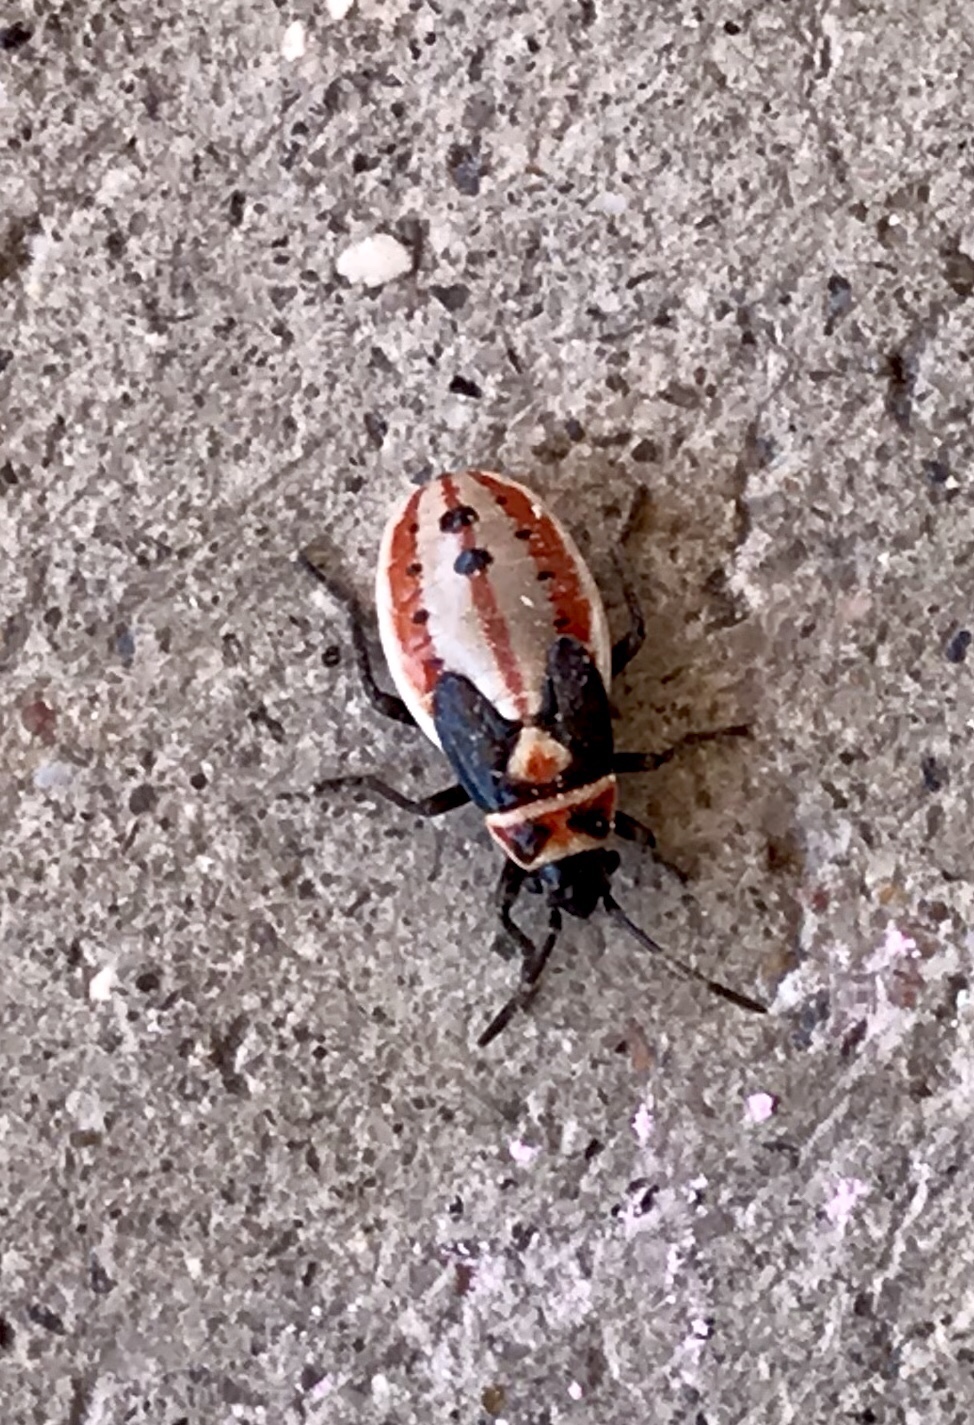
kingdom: Animalia
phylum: Arthropoda
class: Insecta
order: Hemiptera
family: Lygaeidae
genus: Lygaeus
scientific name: Lygaeus kalmii
